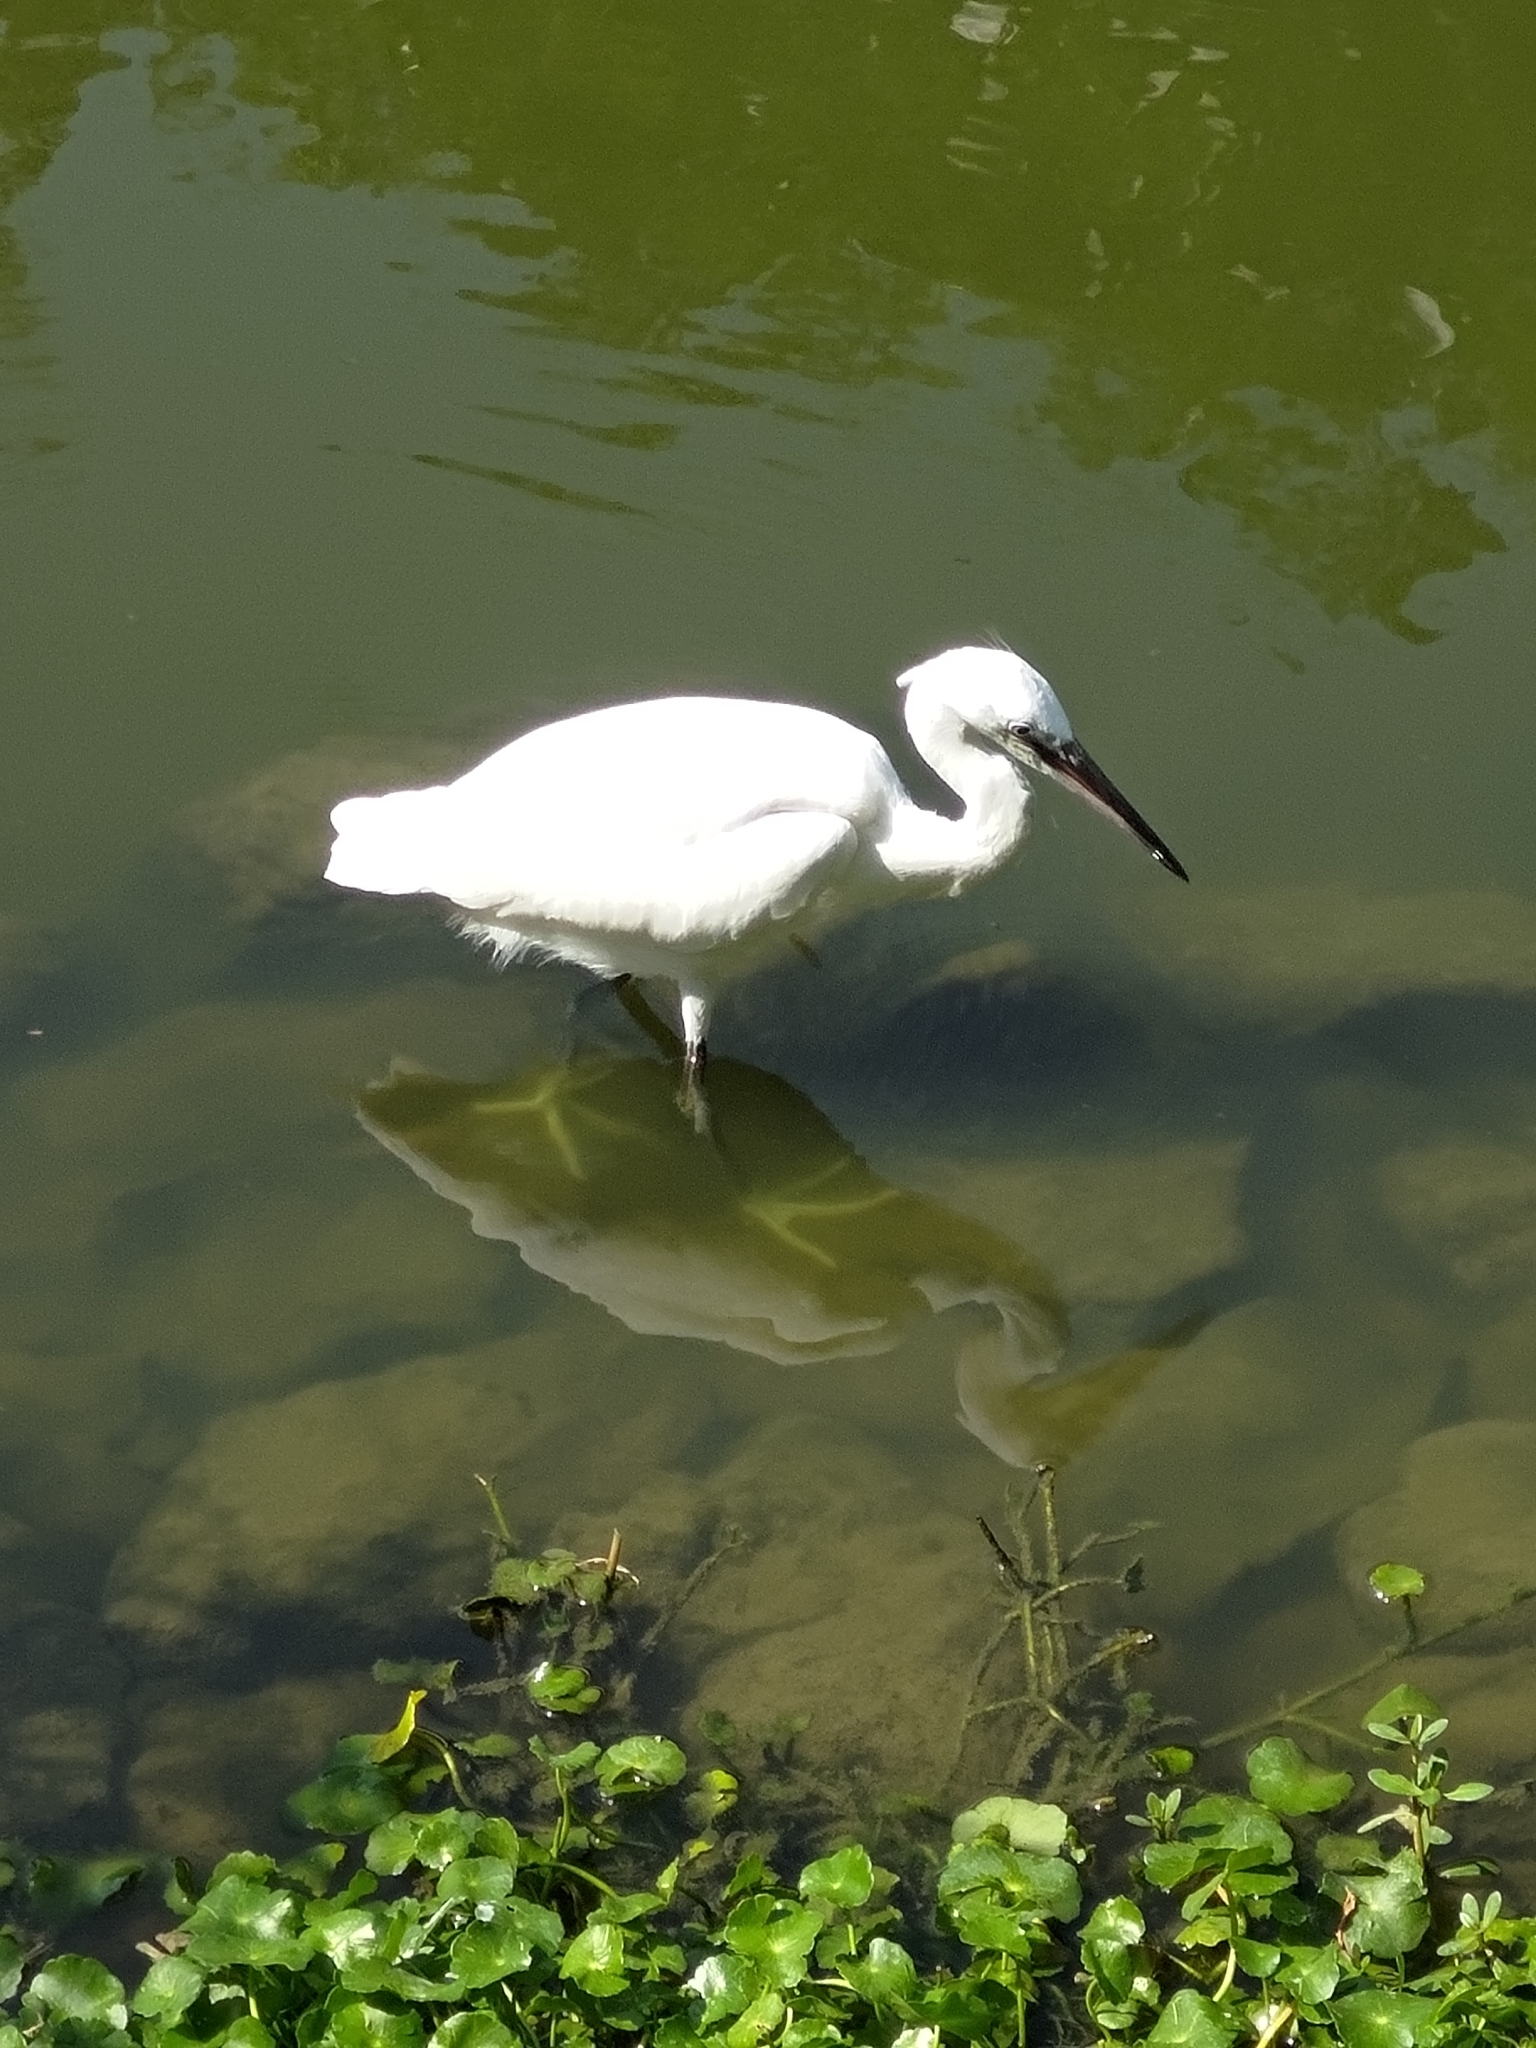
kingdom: Animalia
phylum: Chordata
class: Aves
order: Pelecaniformes
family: Ardeidae
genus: Egretta
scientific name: Egretta garzetta
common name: Little egret
